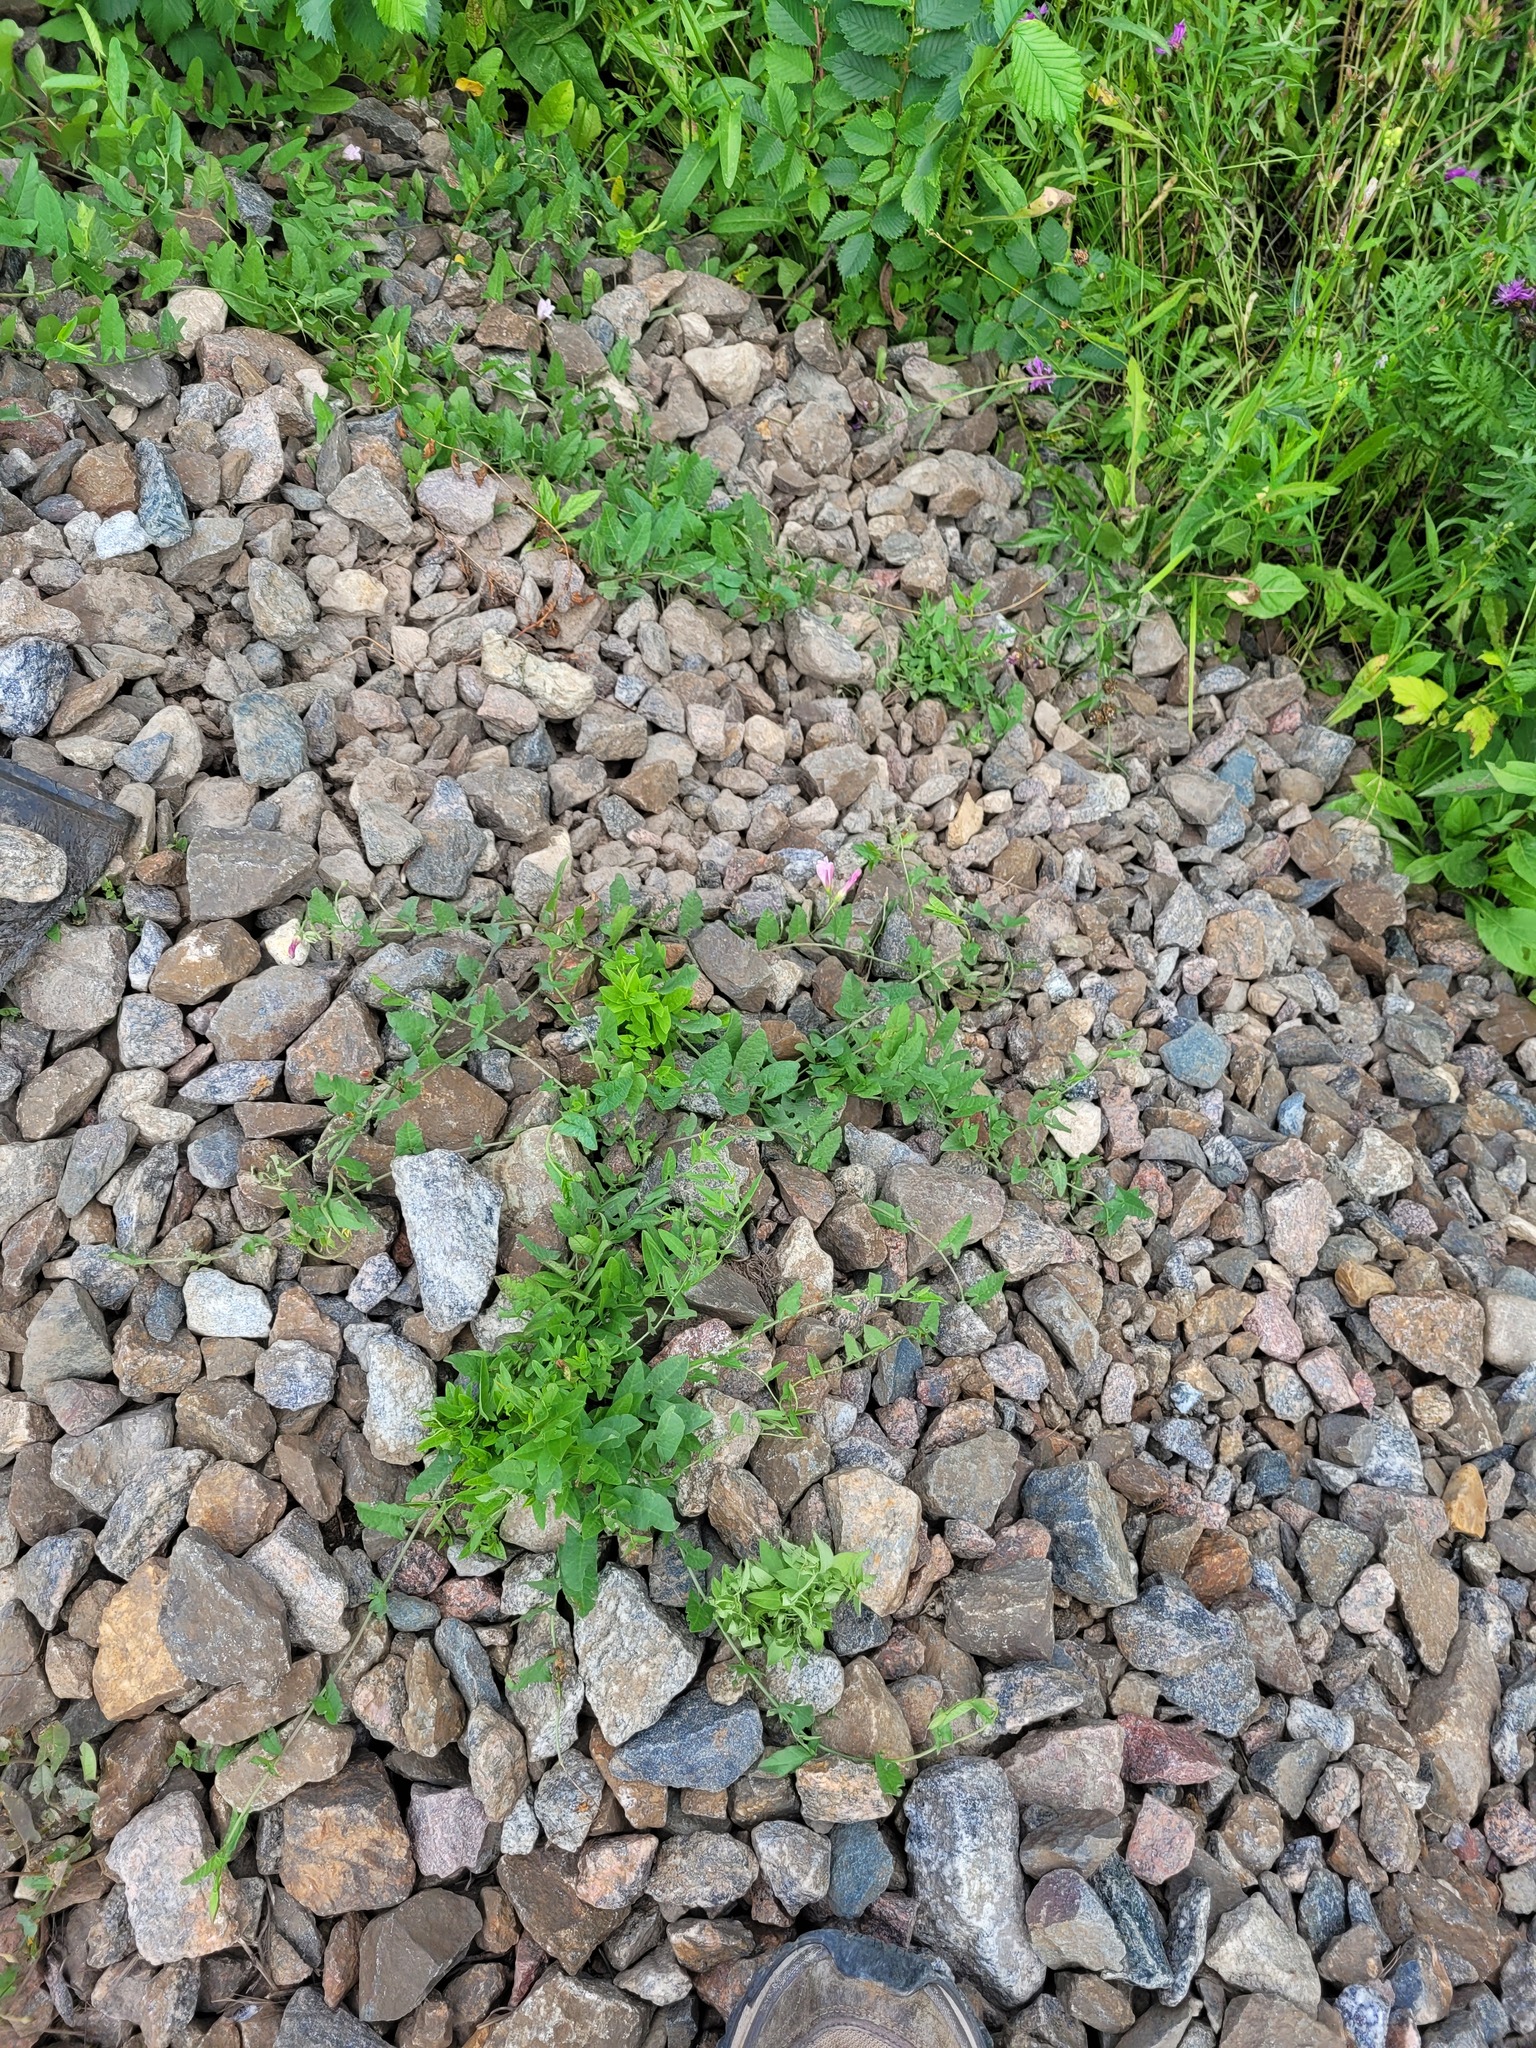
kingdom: Plantae
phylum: Tracheophyta
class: Magnoliopsida
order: Solanales
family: Convolvulaceae
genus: Convolvulus
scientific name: Convolvulus arvensis
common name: Field bindweed
